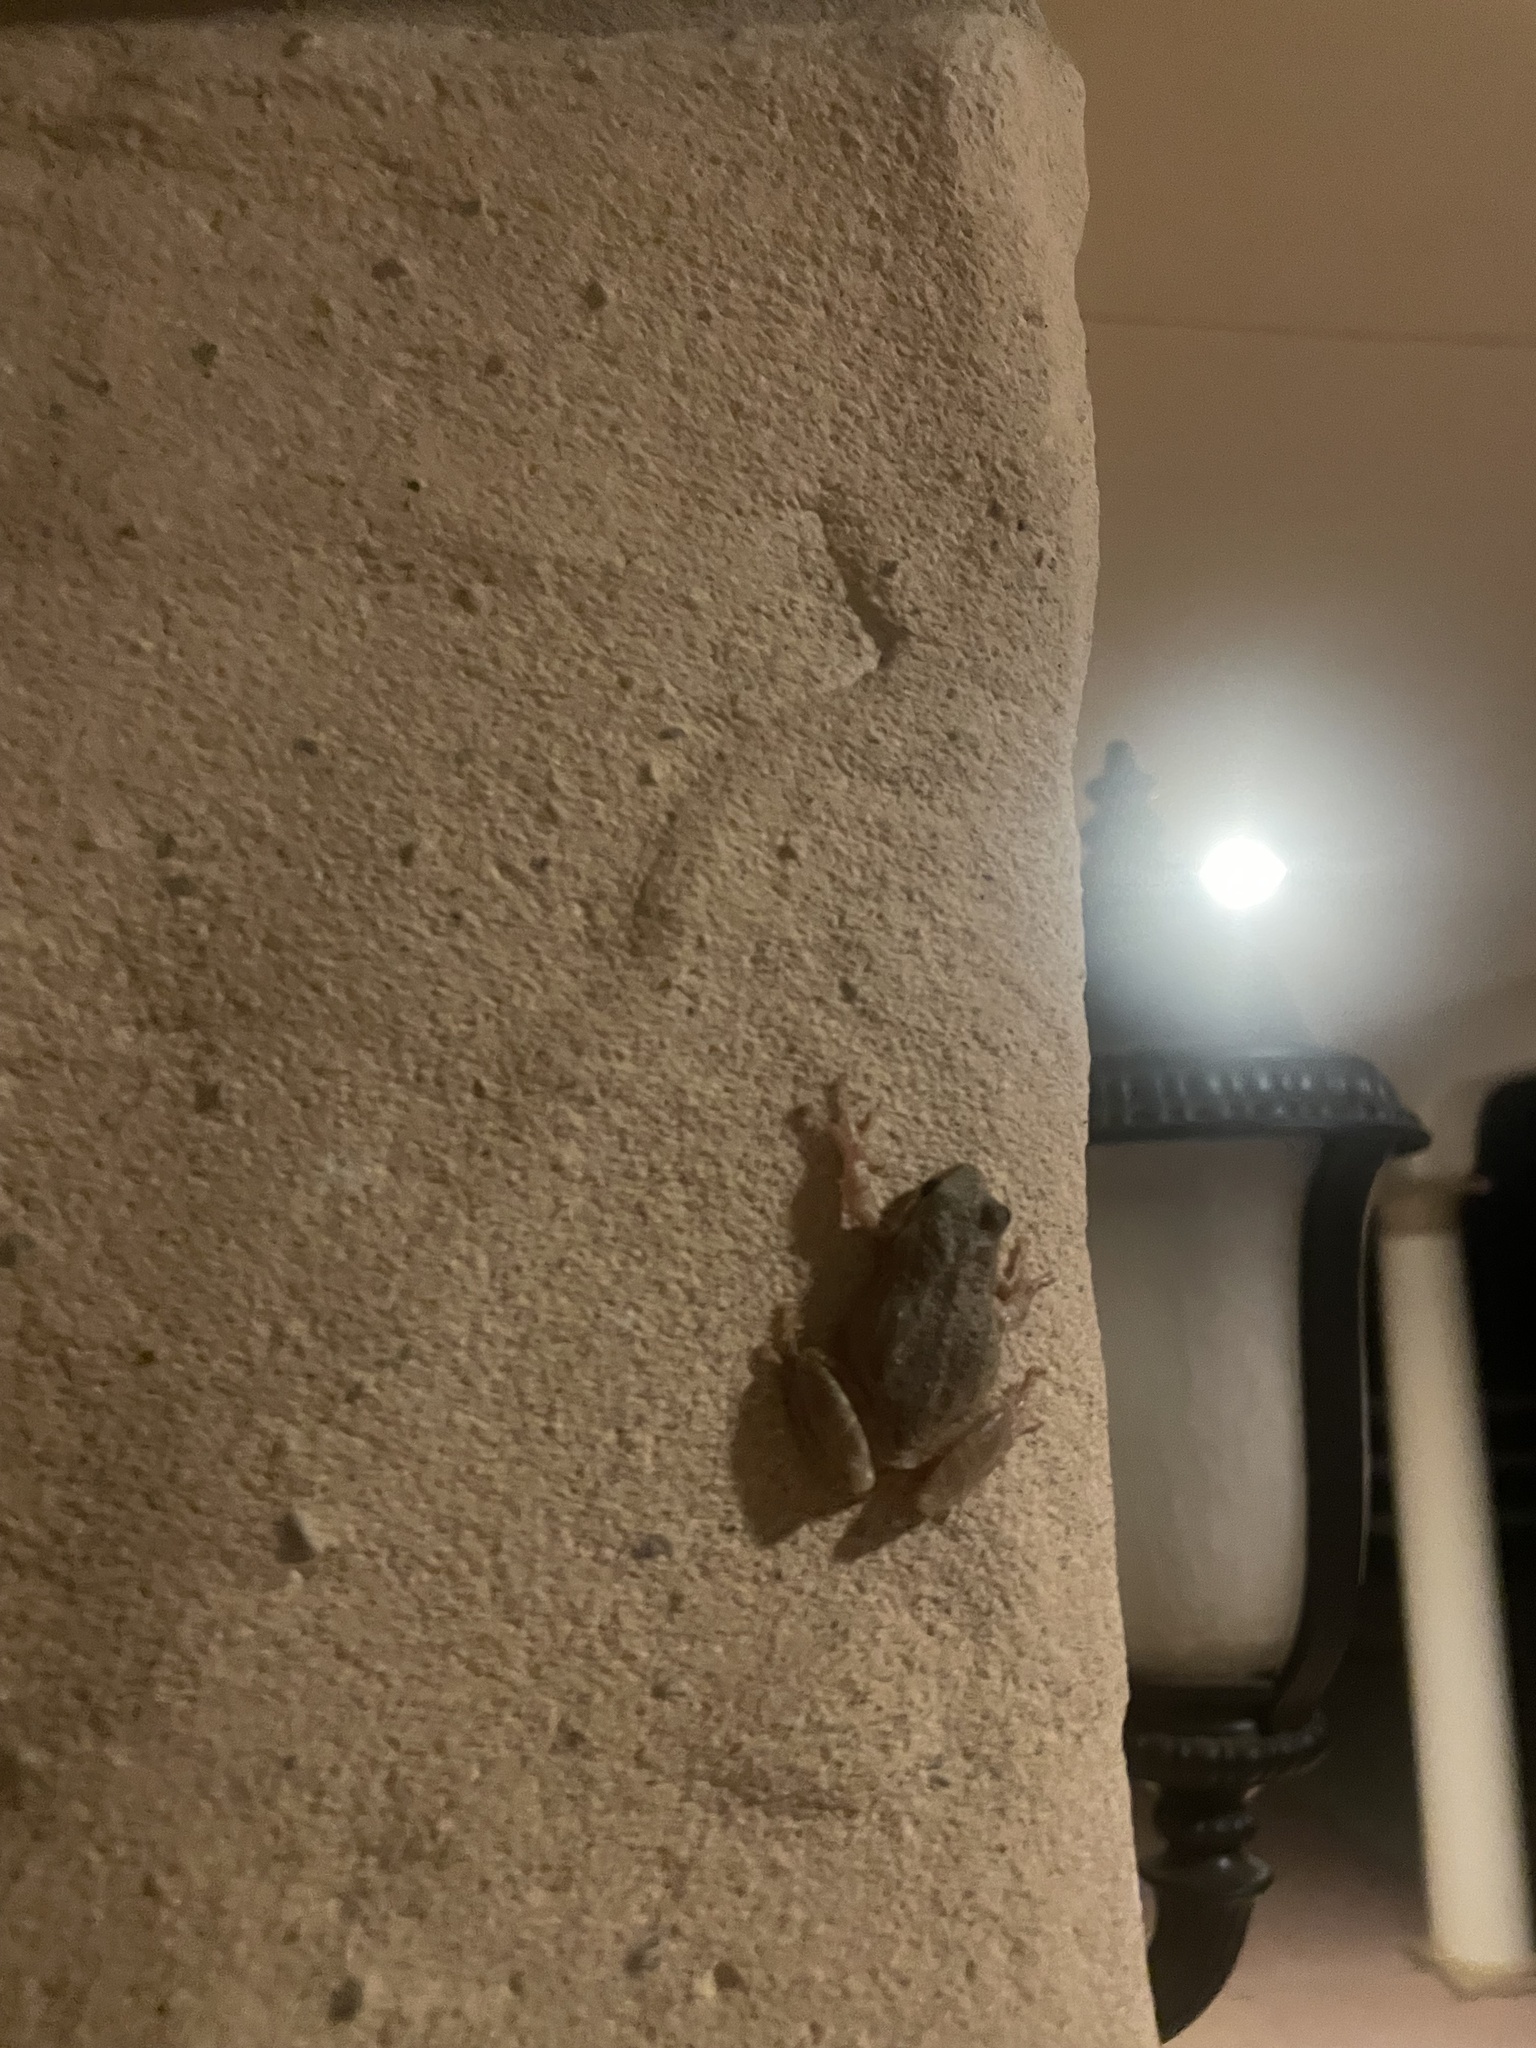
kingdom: Animalia
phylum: Chordata
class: Amphibia
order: Anura
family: Hylidae
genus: Pseudacris
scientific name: Pseudacris regilla
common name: Pacific chorus frog
